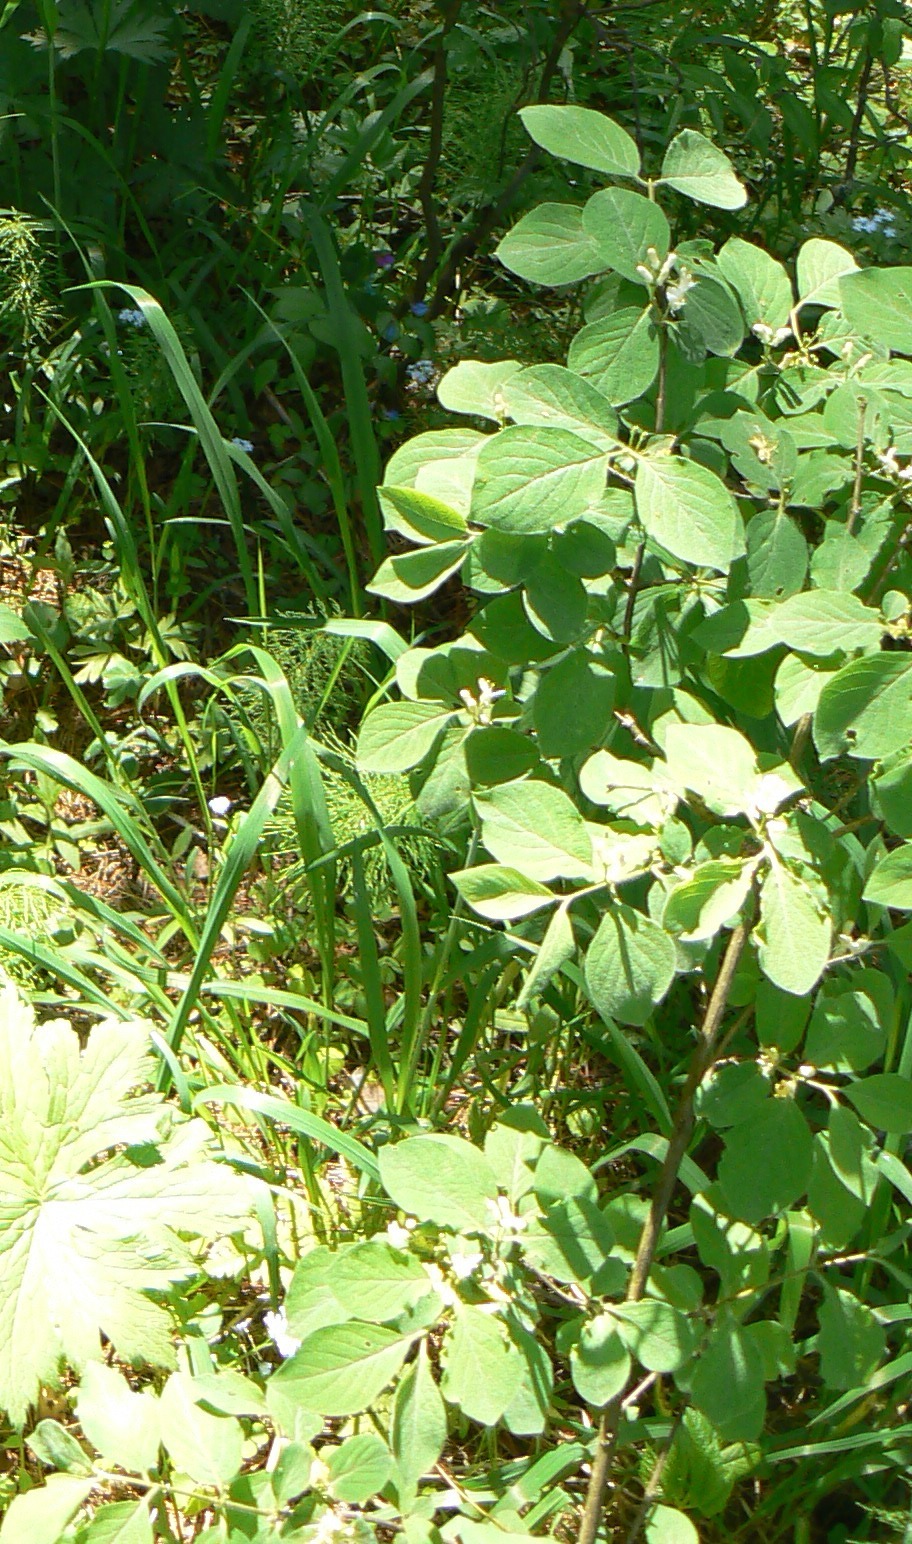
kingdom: Plantae
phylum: Tracheophyta
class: Magnoliopsida
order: Dipsacales
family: Caprifoliaceae
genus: Lonicera
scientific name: Lonicera xylosteum
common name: Fly honeysuckle
